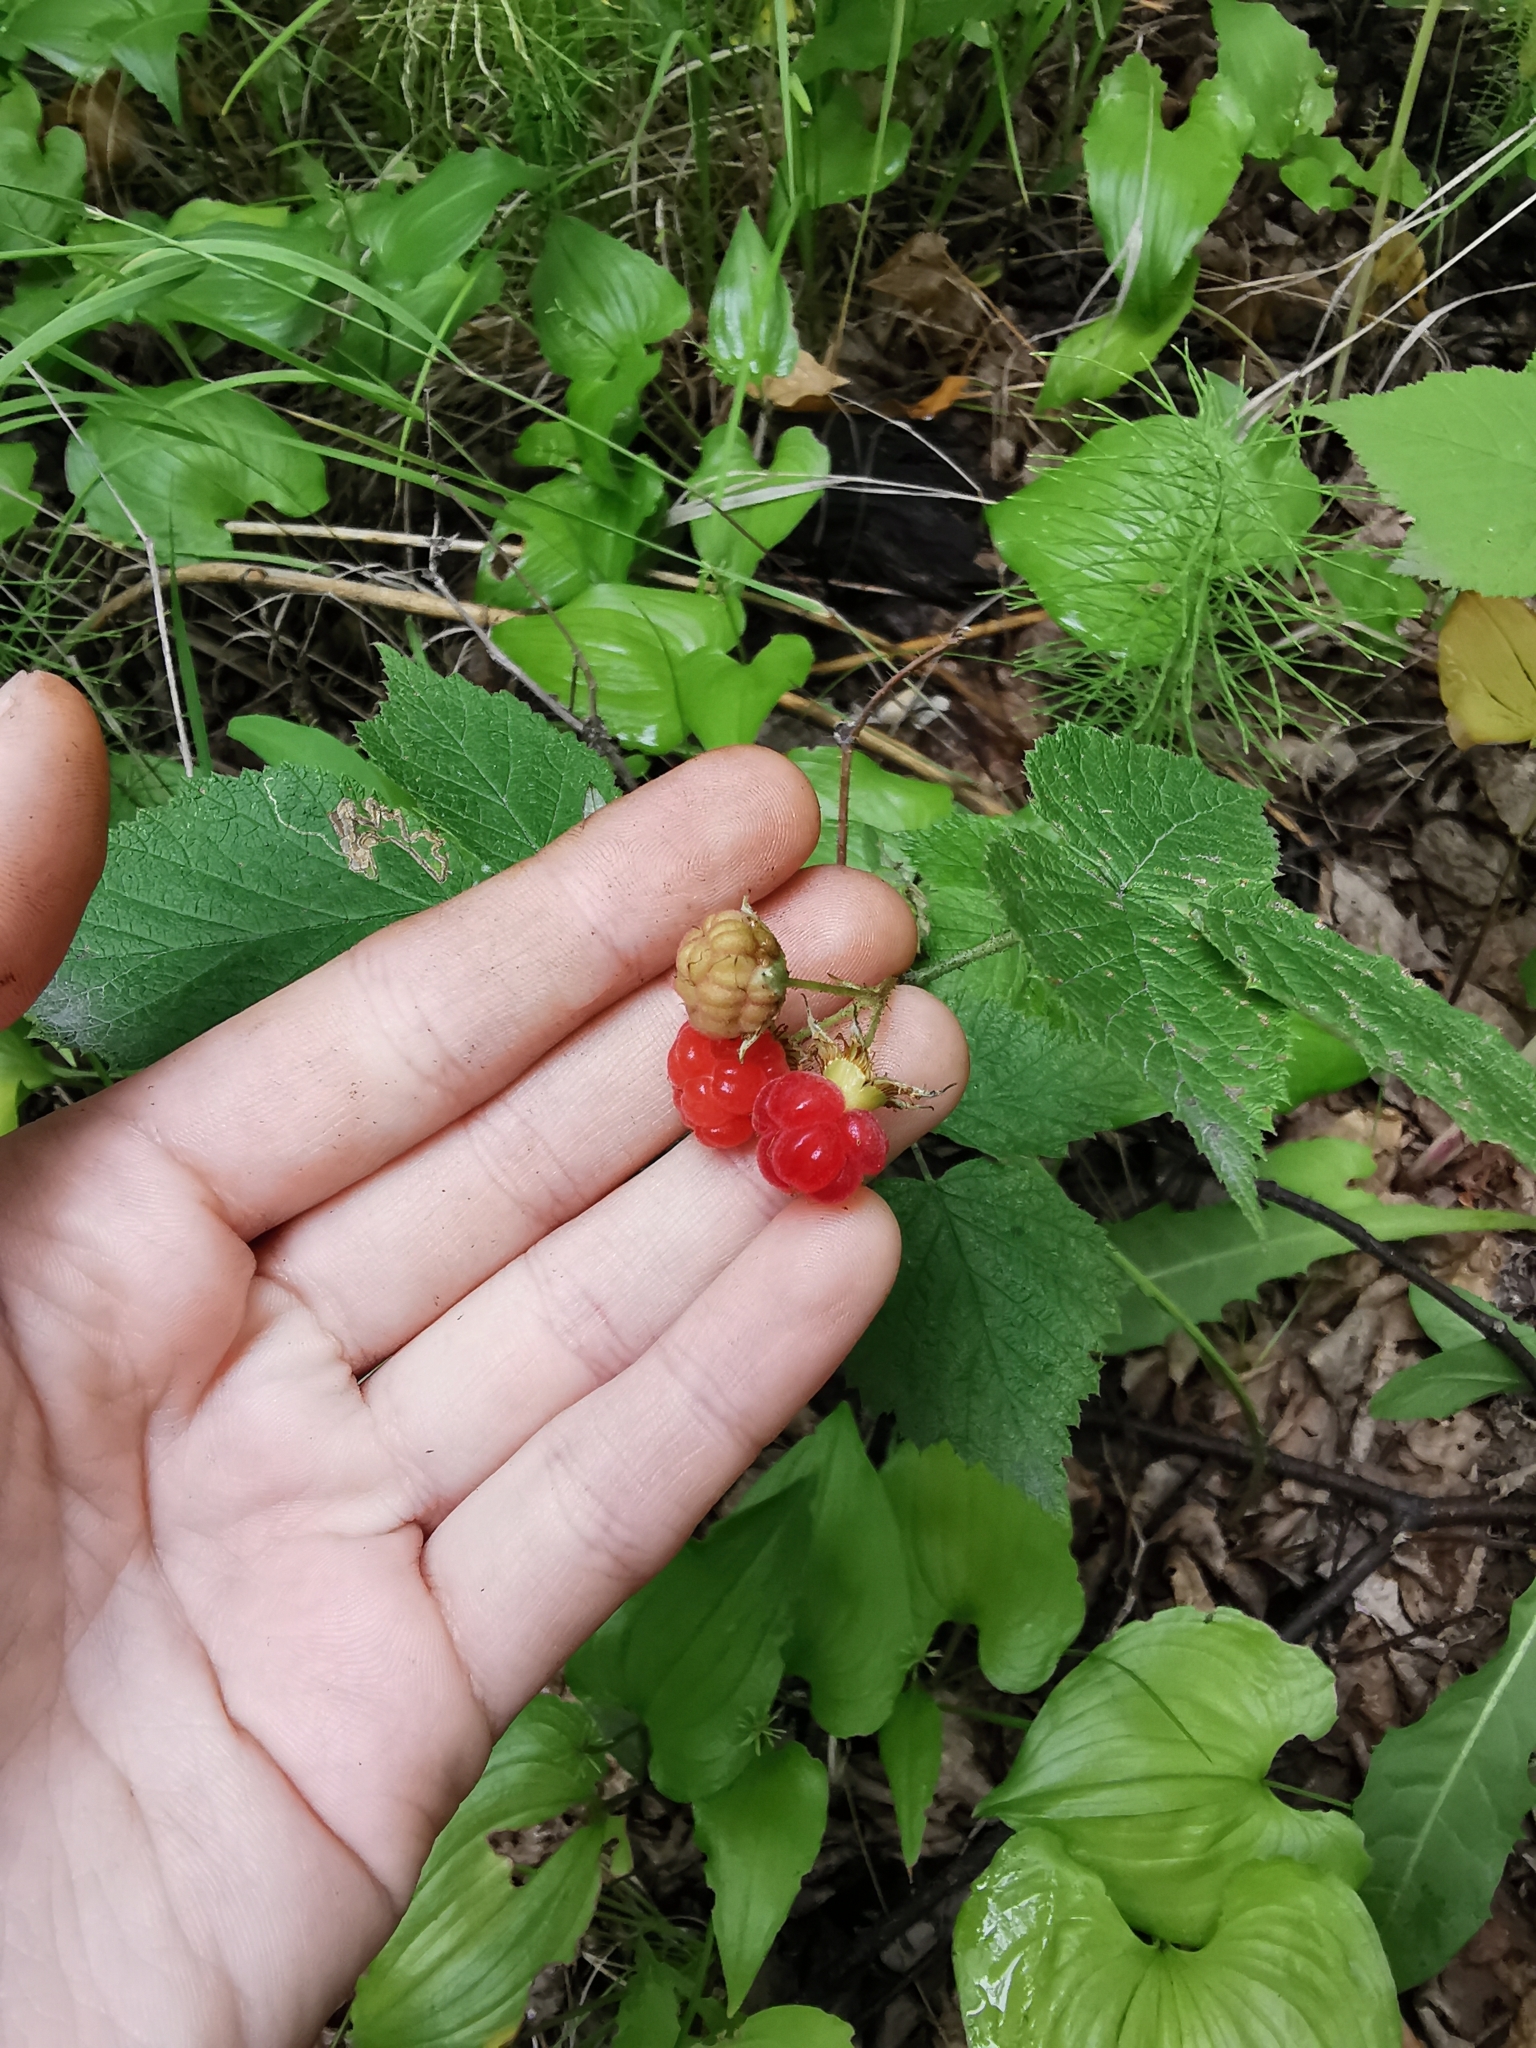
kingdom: Plantae
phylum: Tracheophyta
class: Magnoliopsida
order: Rosales
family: Rosaceae
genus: Rubus
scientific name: Rubus sachalinensis
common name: Red raspberry
